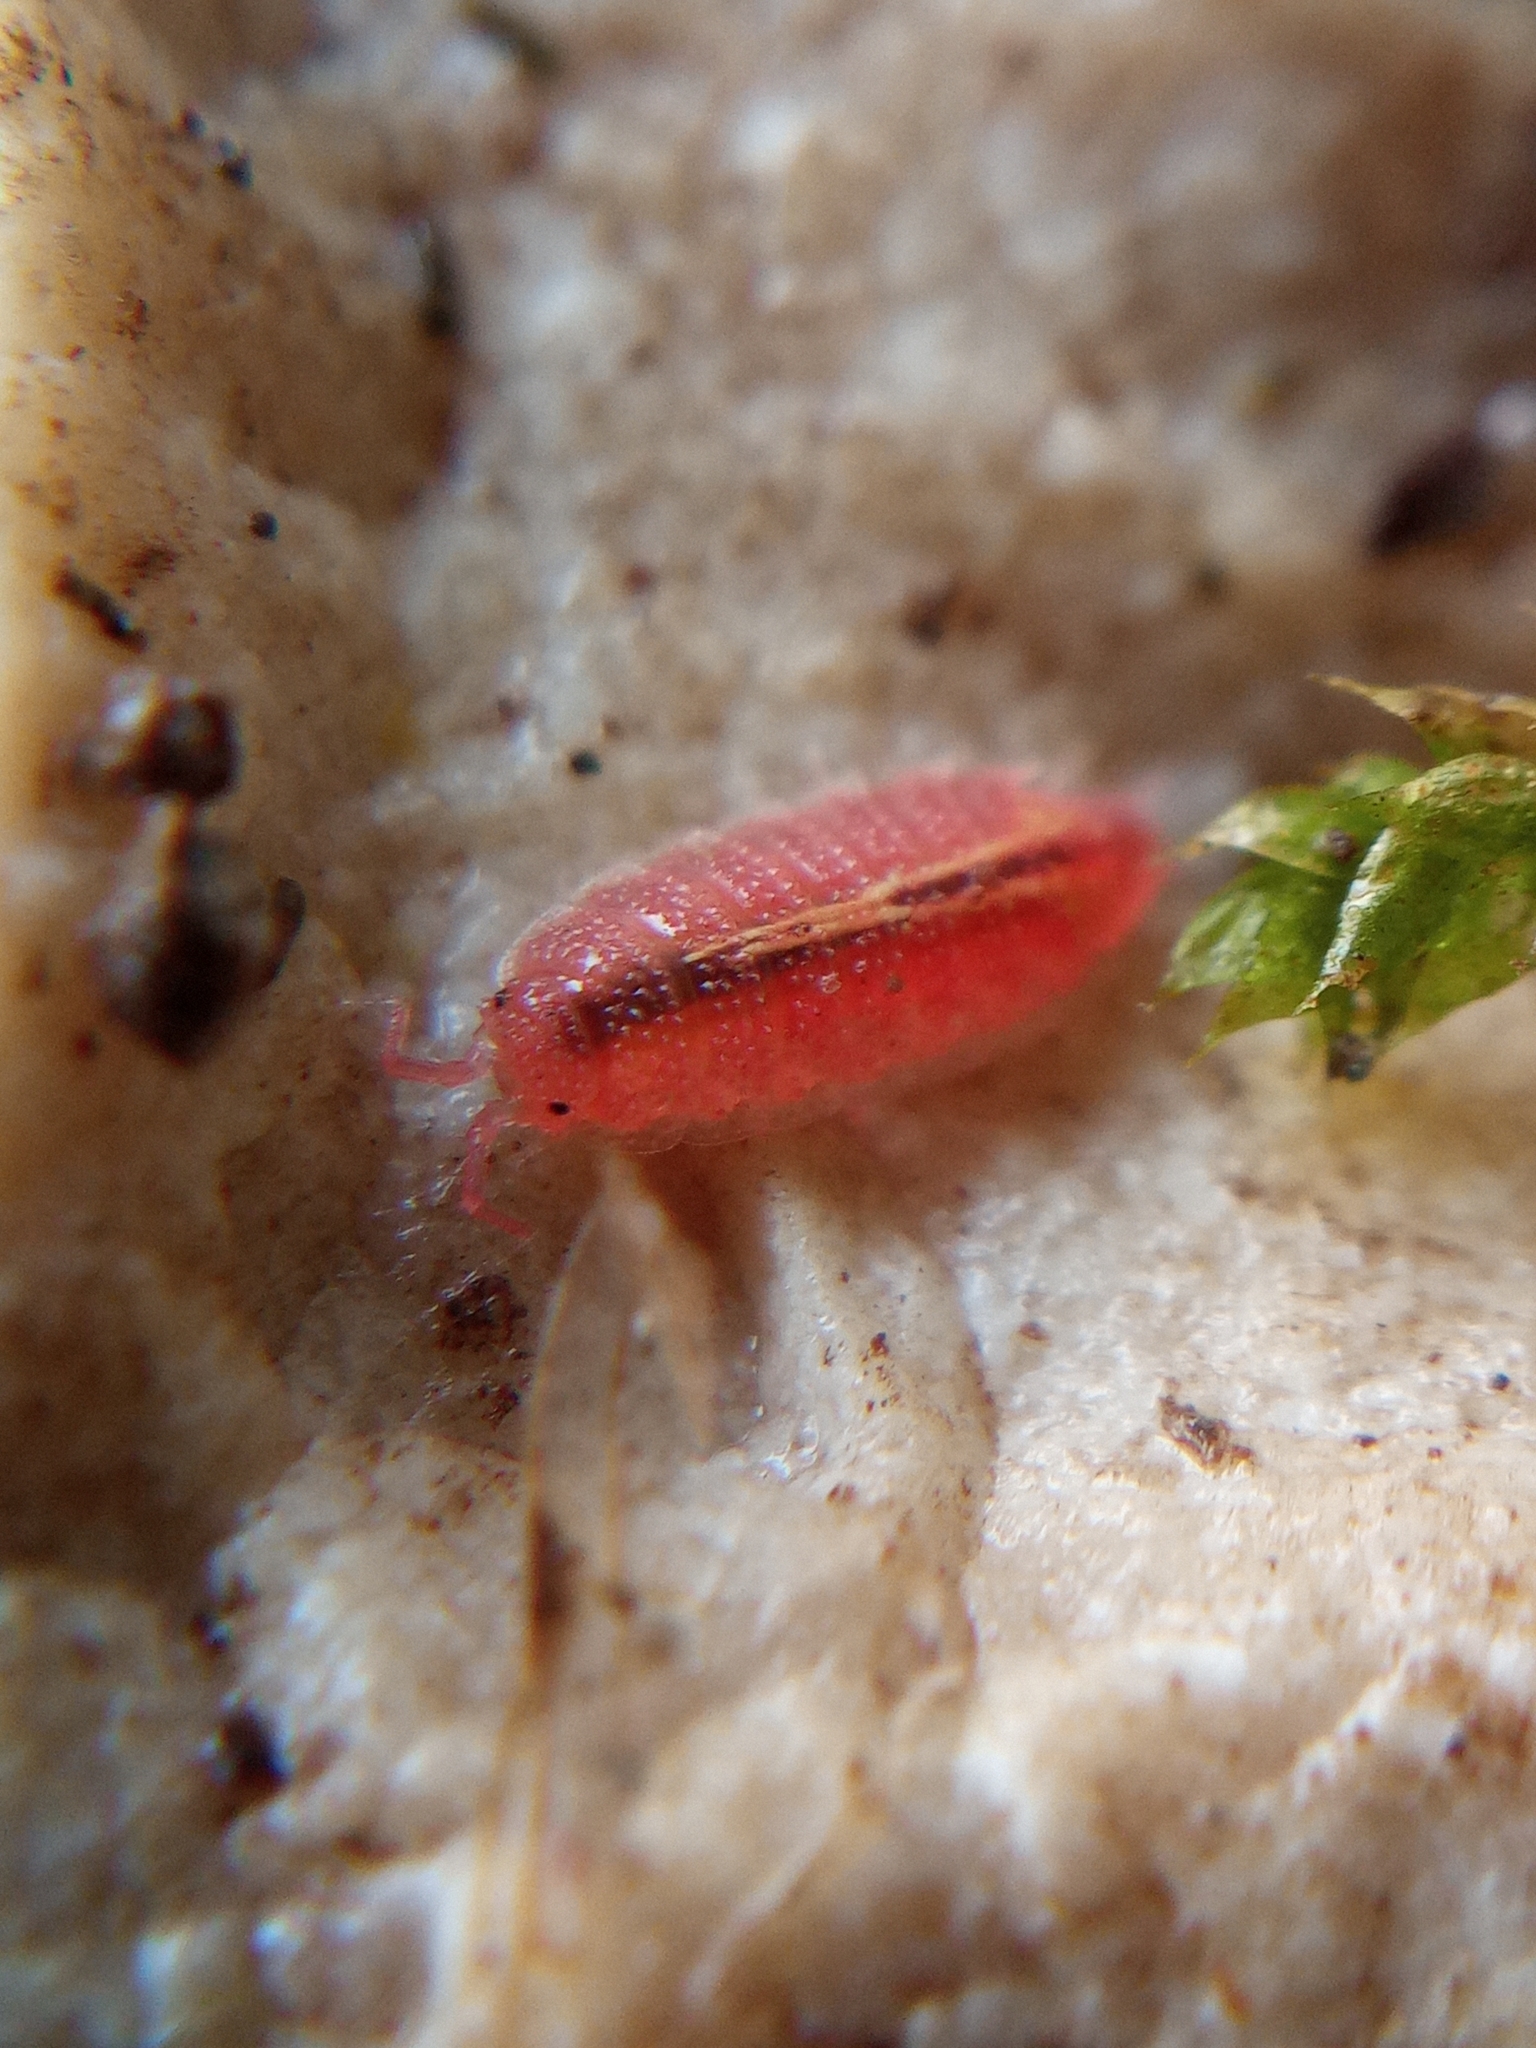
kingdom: Animalia
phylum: Arthropoda
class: Malacostraca
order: Isopoda
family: Trichoniscidae
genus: Androniscus
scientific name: Androniscus dentiger
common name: Rosy woodlouse
